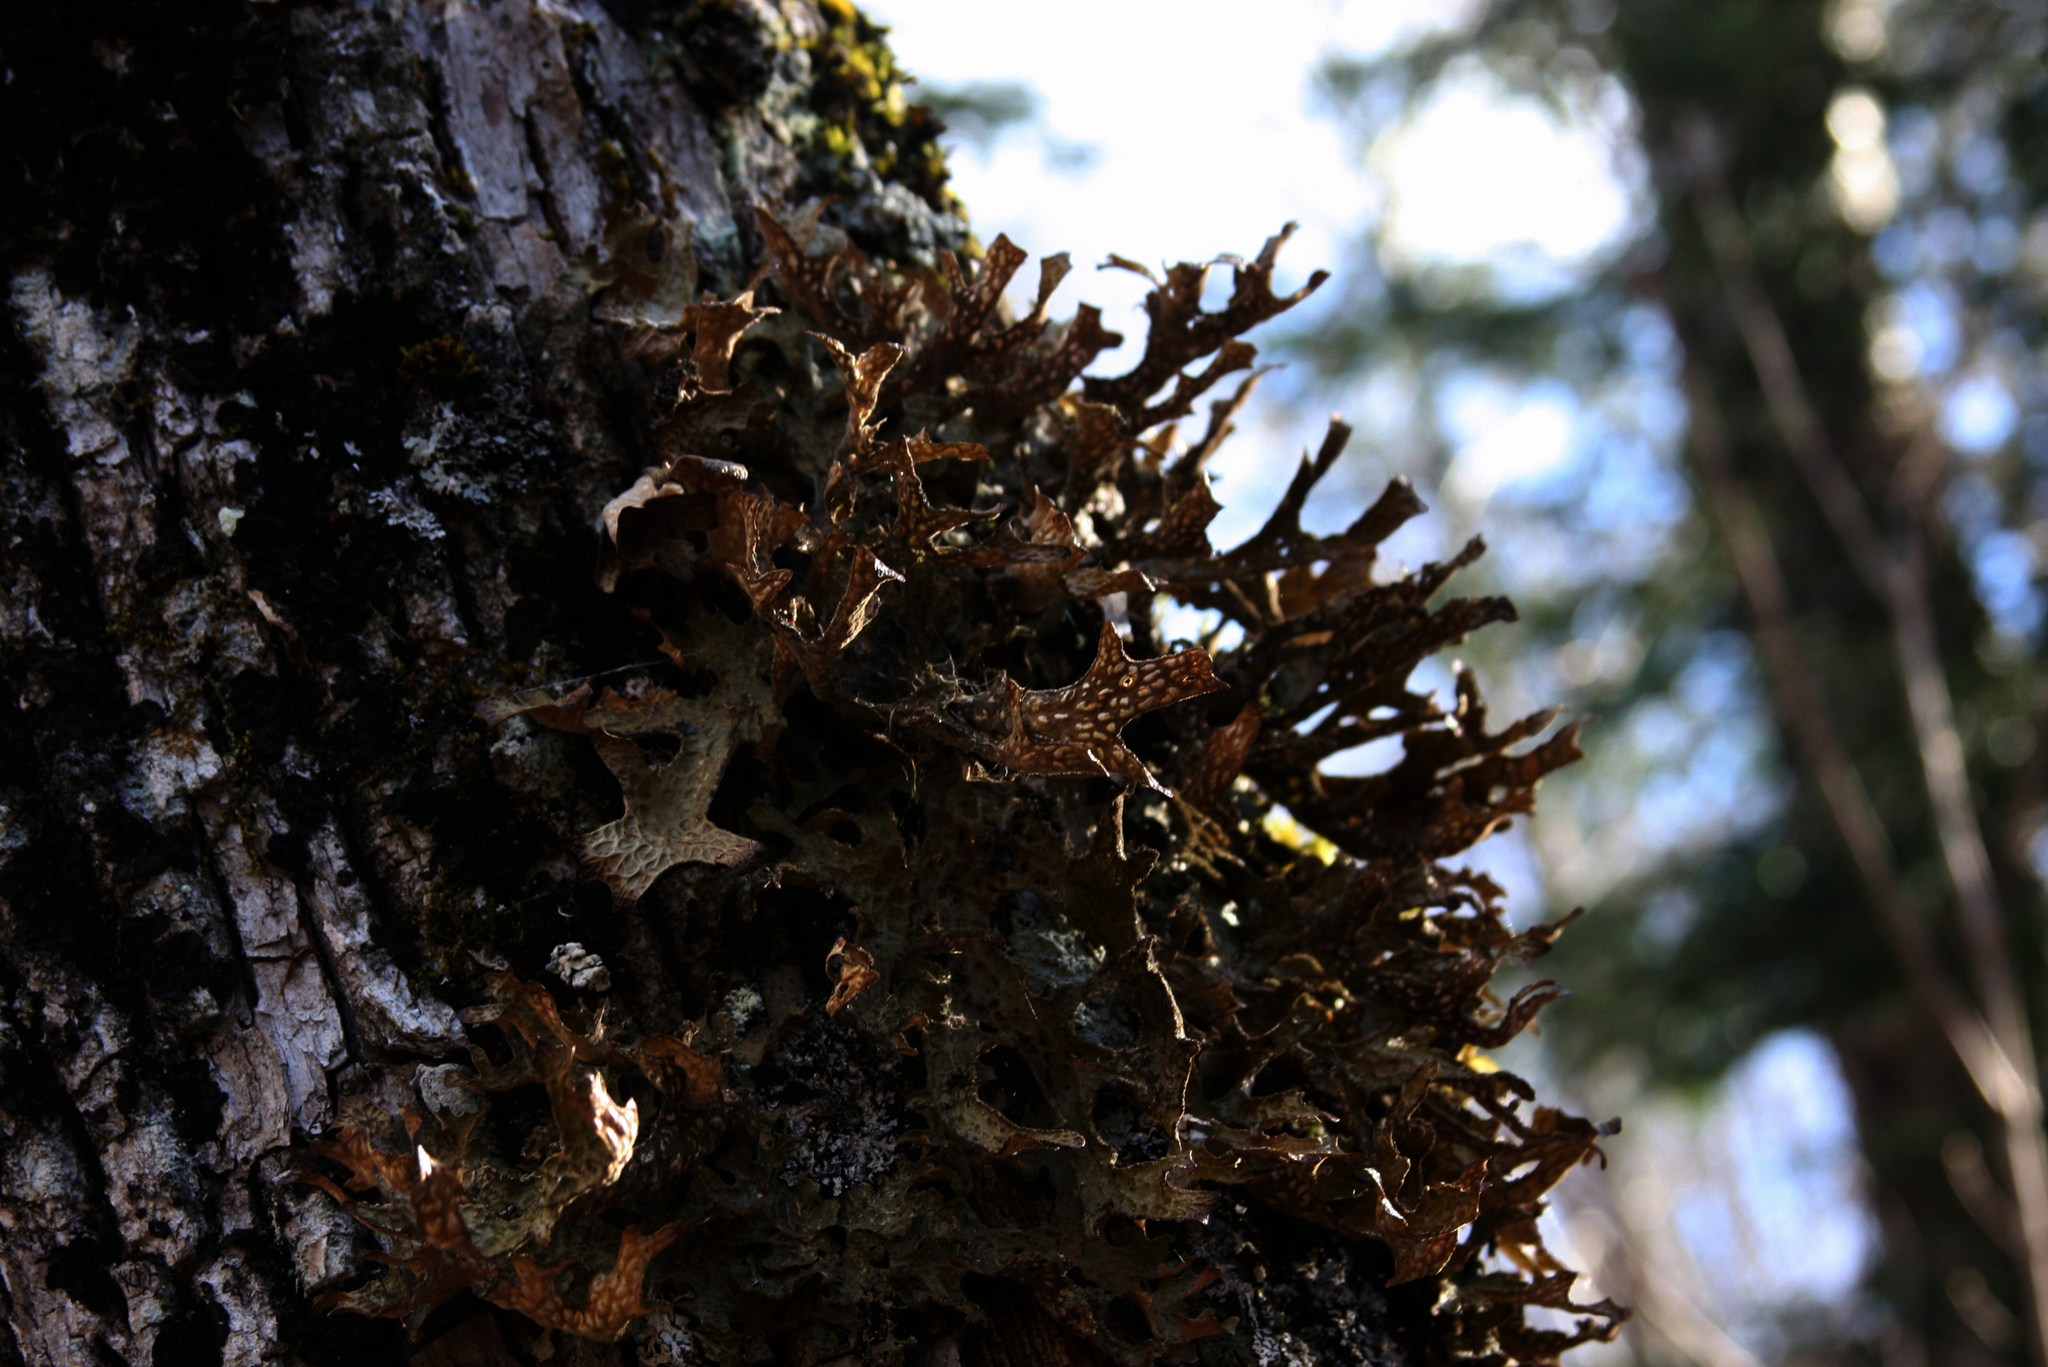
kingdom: Fungi
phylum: Ascomycota
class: Lecanoromycetes
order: Peltigerales
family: Lobariaceae
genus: Lobaria
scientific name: Lobaria pulmonaria
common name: Lungwort
